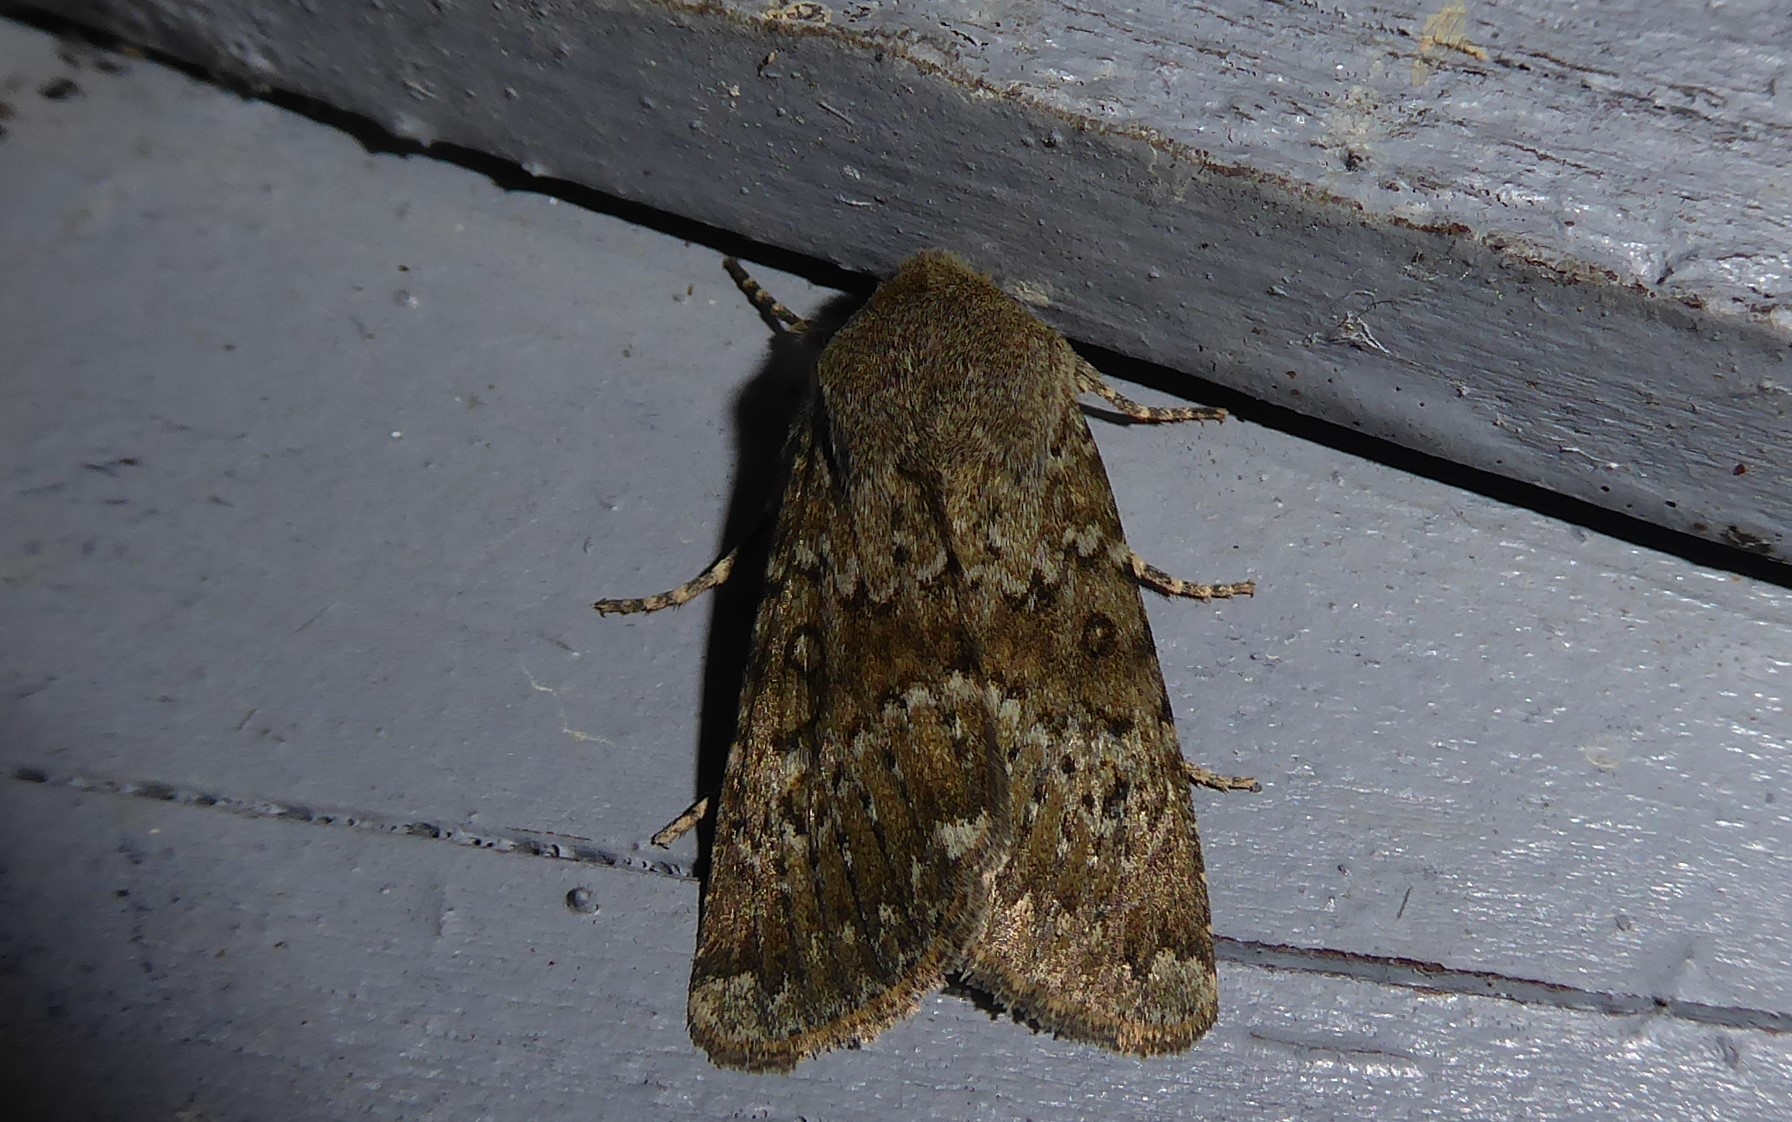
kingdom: Animalia
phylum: Arthropoda
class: Insecta
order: Lepidoptera
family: Noctuidae
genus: Ichneutica
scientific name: Ichneutica moderata
